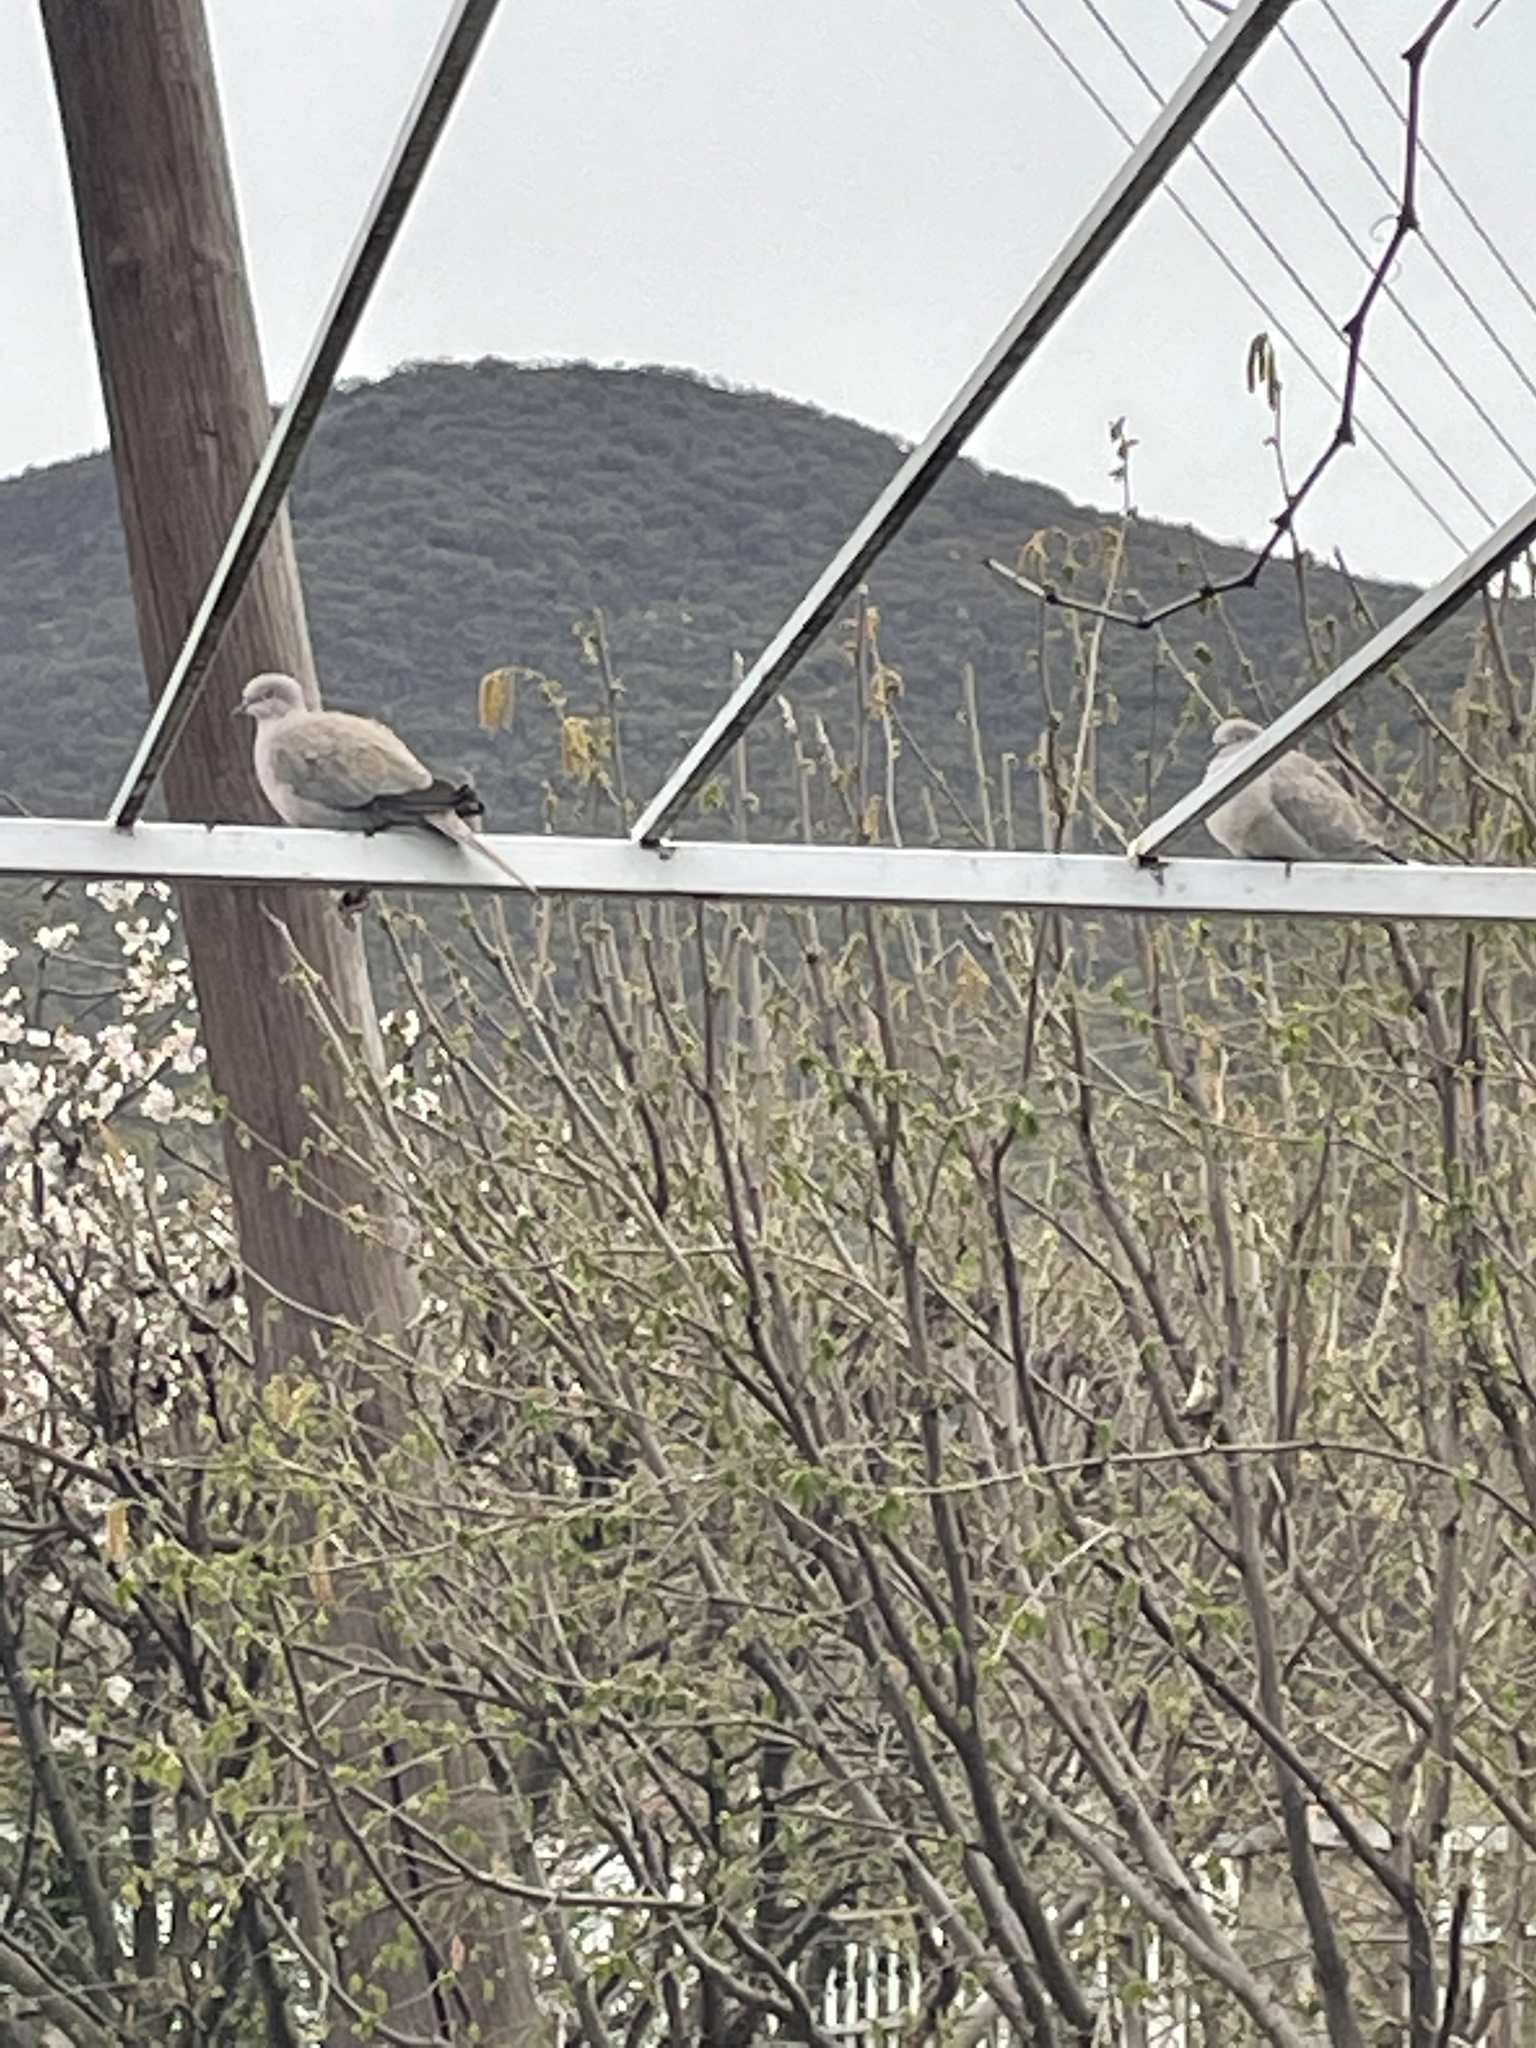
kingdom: Animalia
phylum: Chordata
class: Aves
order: Columbiformes
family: Columbidae
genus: Streptopelia
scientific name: Streptopelia decaocto
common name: Eurasian collared dove
